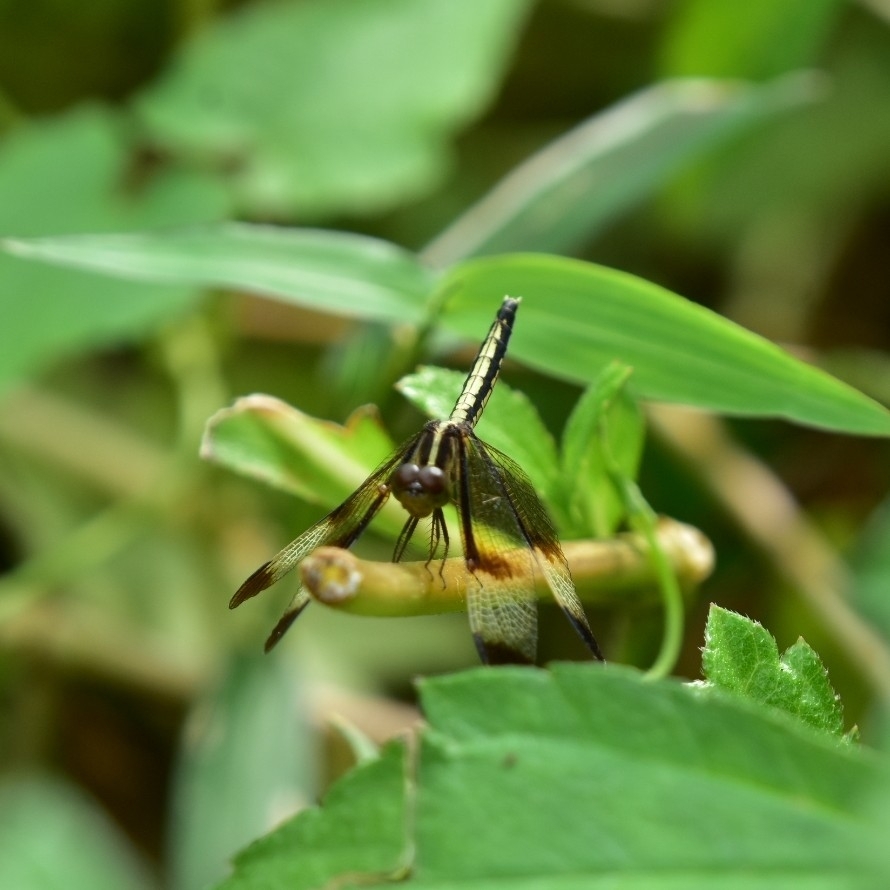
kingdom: Animalia
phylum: Arthropoda
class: Insecta
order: Odonata
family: Libellulidae
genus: Neurothemis
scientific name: Neurothemis tullia
